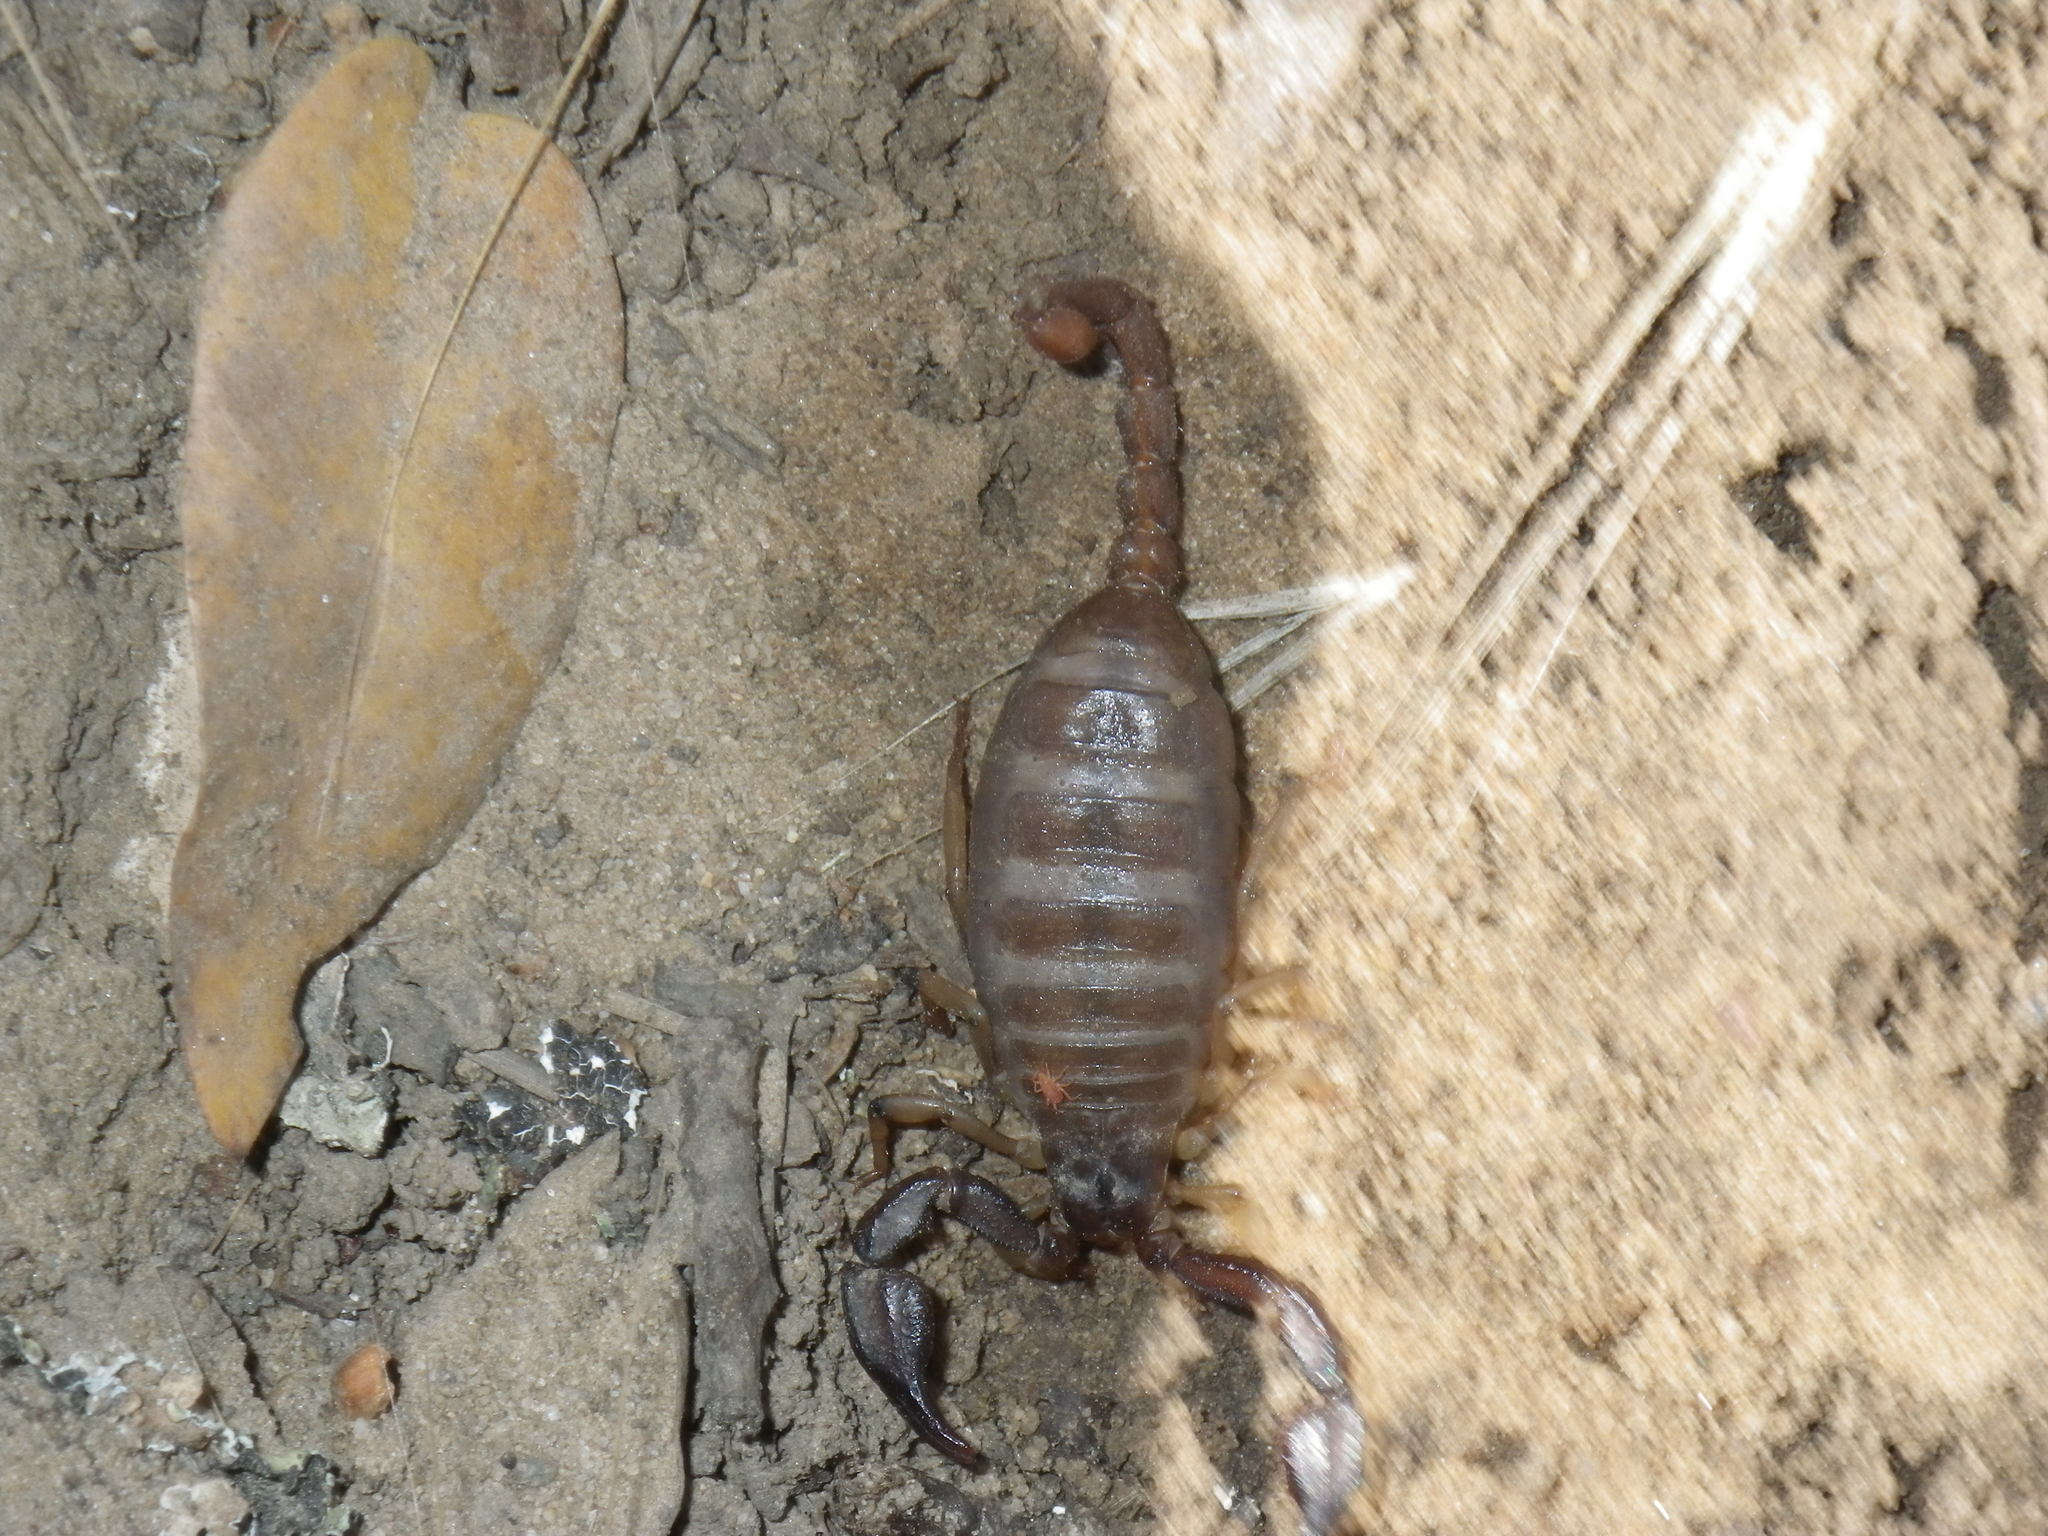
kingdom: Animalia
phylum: Arthropoda
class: Arachnida
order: Scorpiones
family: Chactidae
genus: Uroctonus
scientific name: Uroctonus mordax
